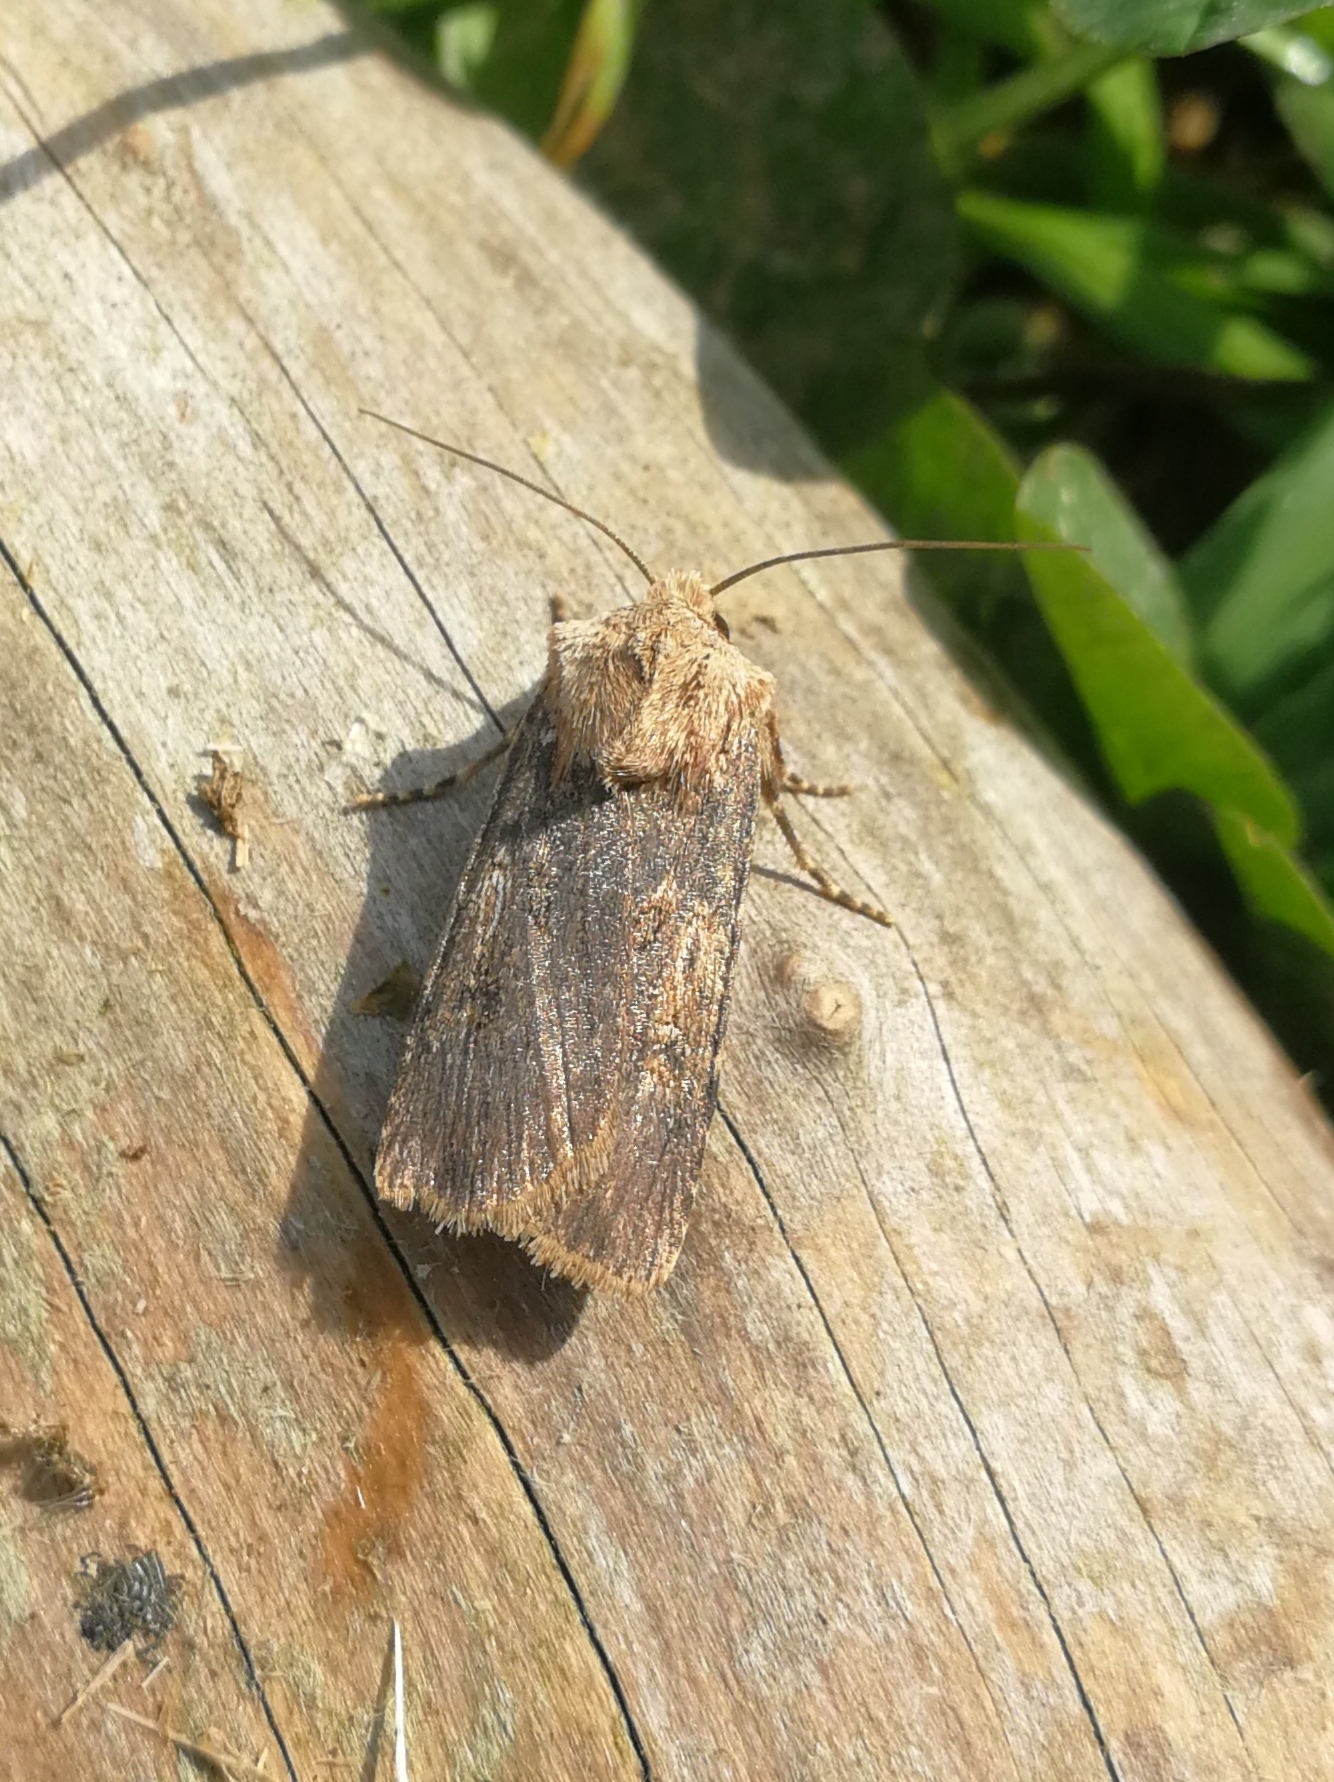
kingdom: Animalia
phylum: Arthropoda
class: Insecta
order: Lepidoptera
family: Noctuidae
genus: Agrotis
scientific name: Agrotis puta
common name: Shuttle-shaped dart
